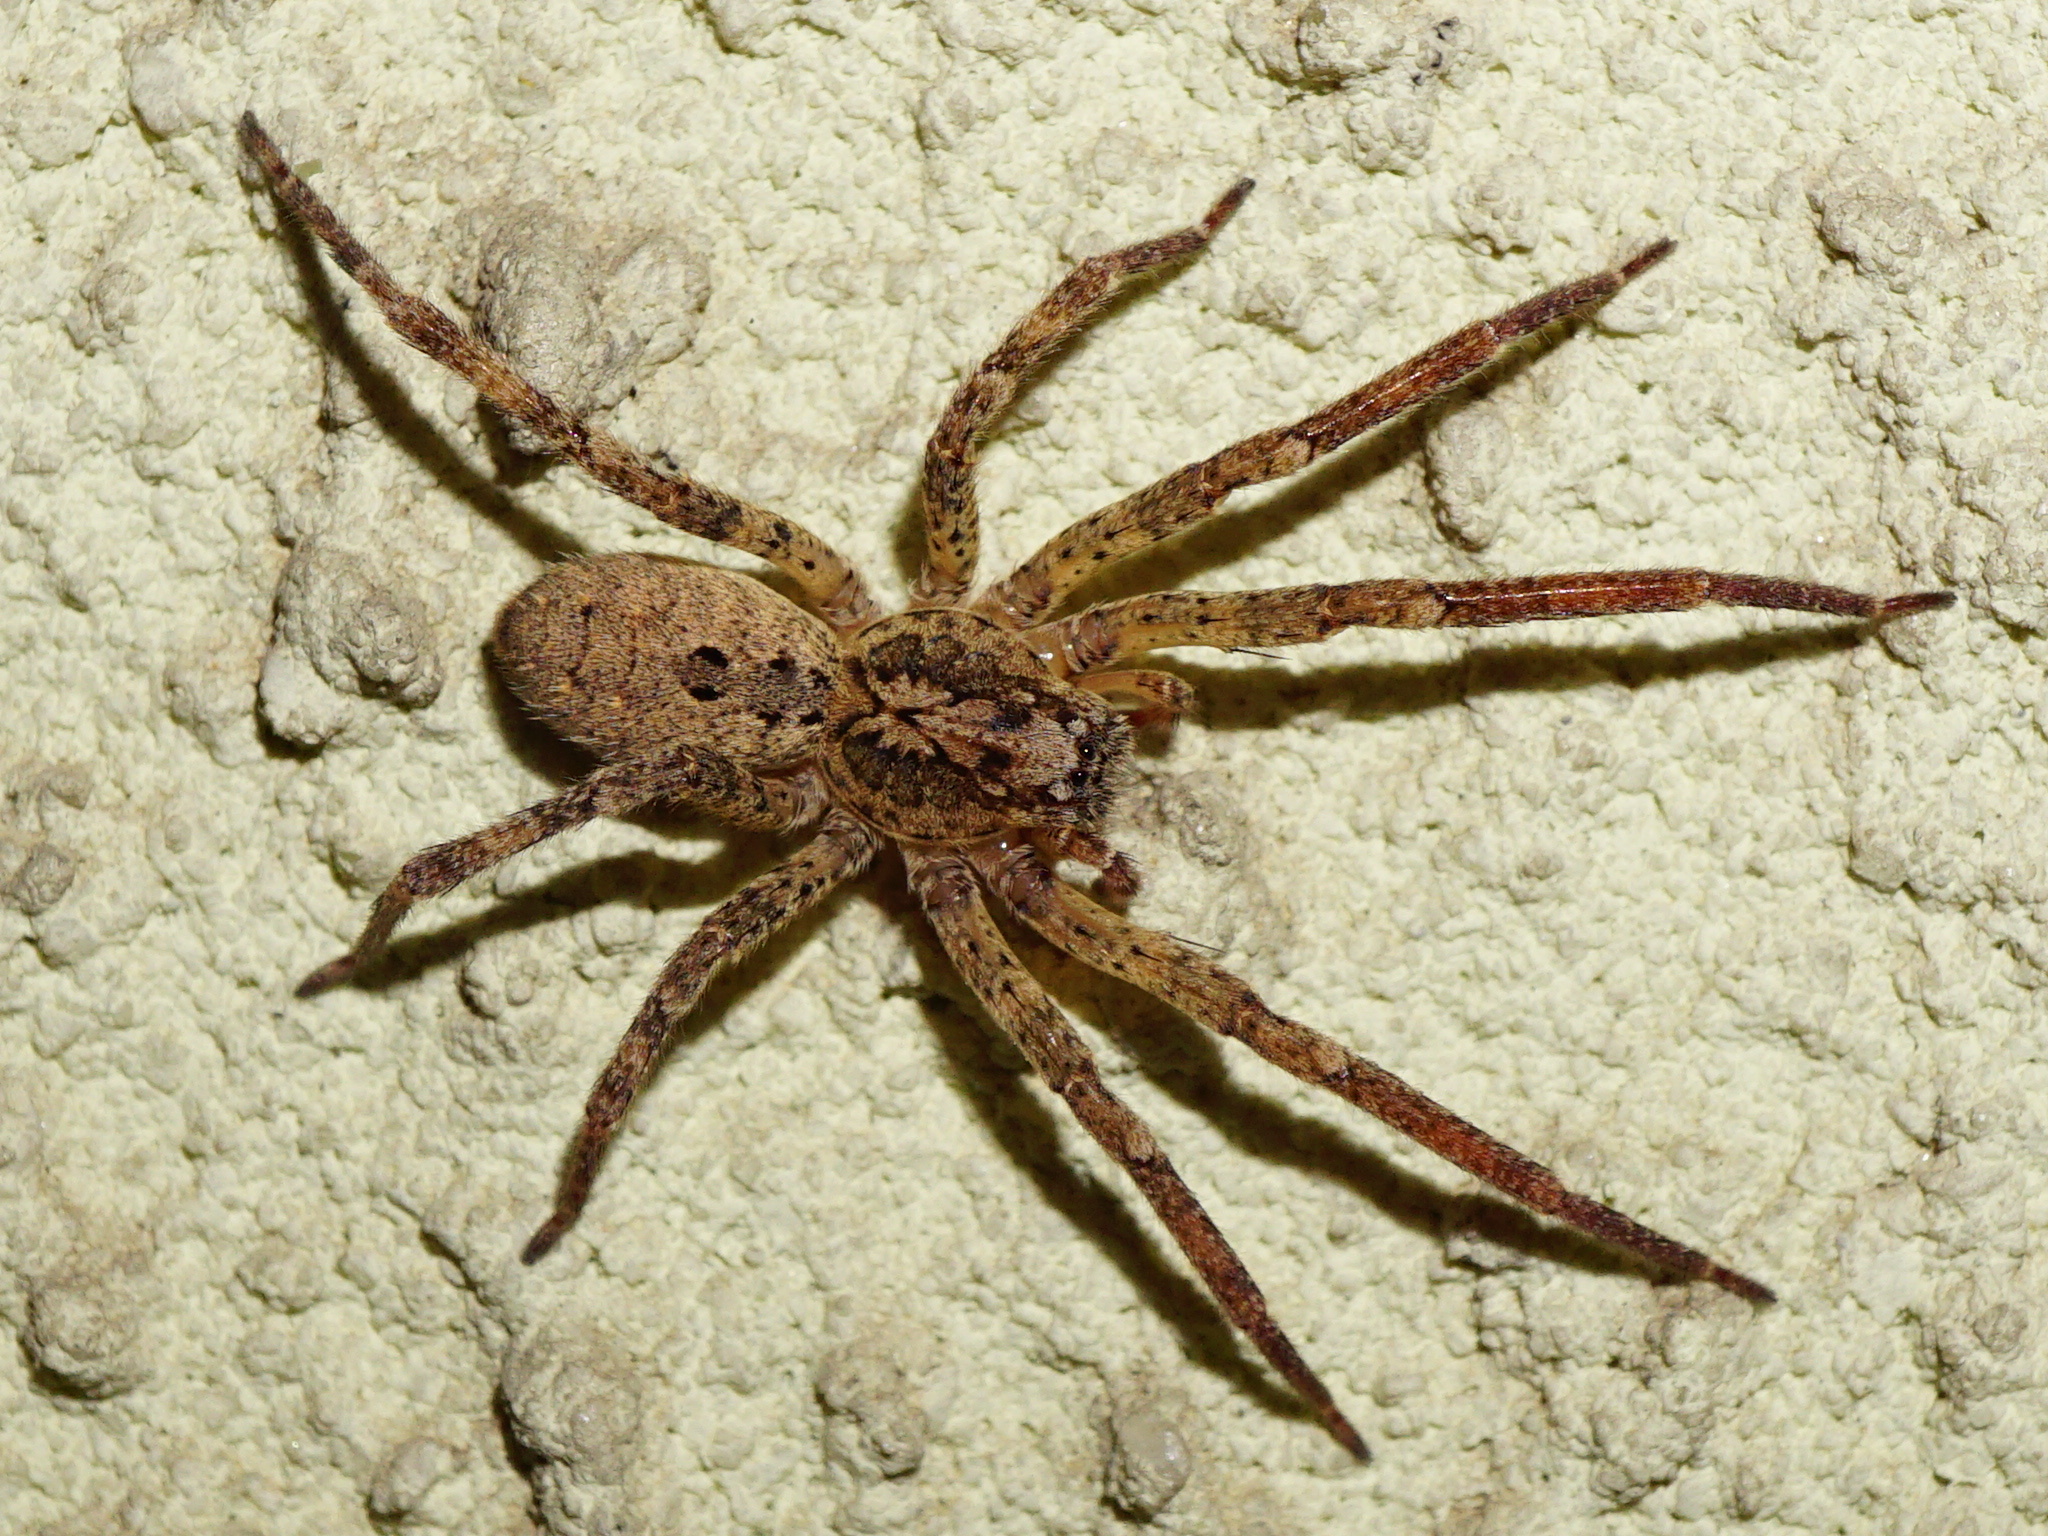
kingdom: Animalia
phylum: Arthropoda
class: Arachnida
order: Araneae
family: Zoropsidae
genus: Zoropsis
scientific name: Zoropsis spinimana
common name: Zoropsid spider
